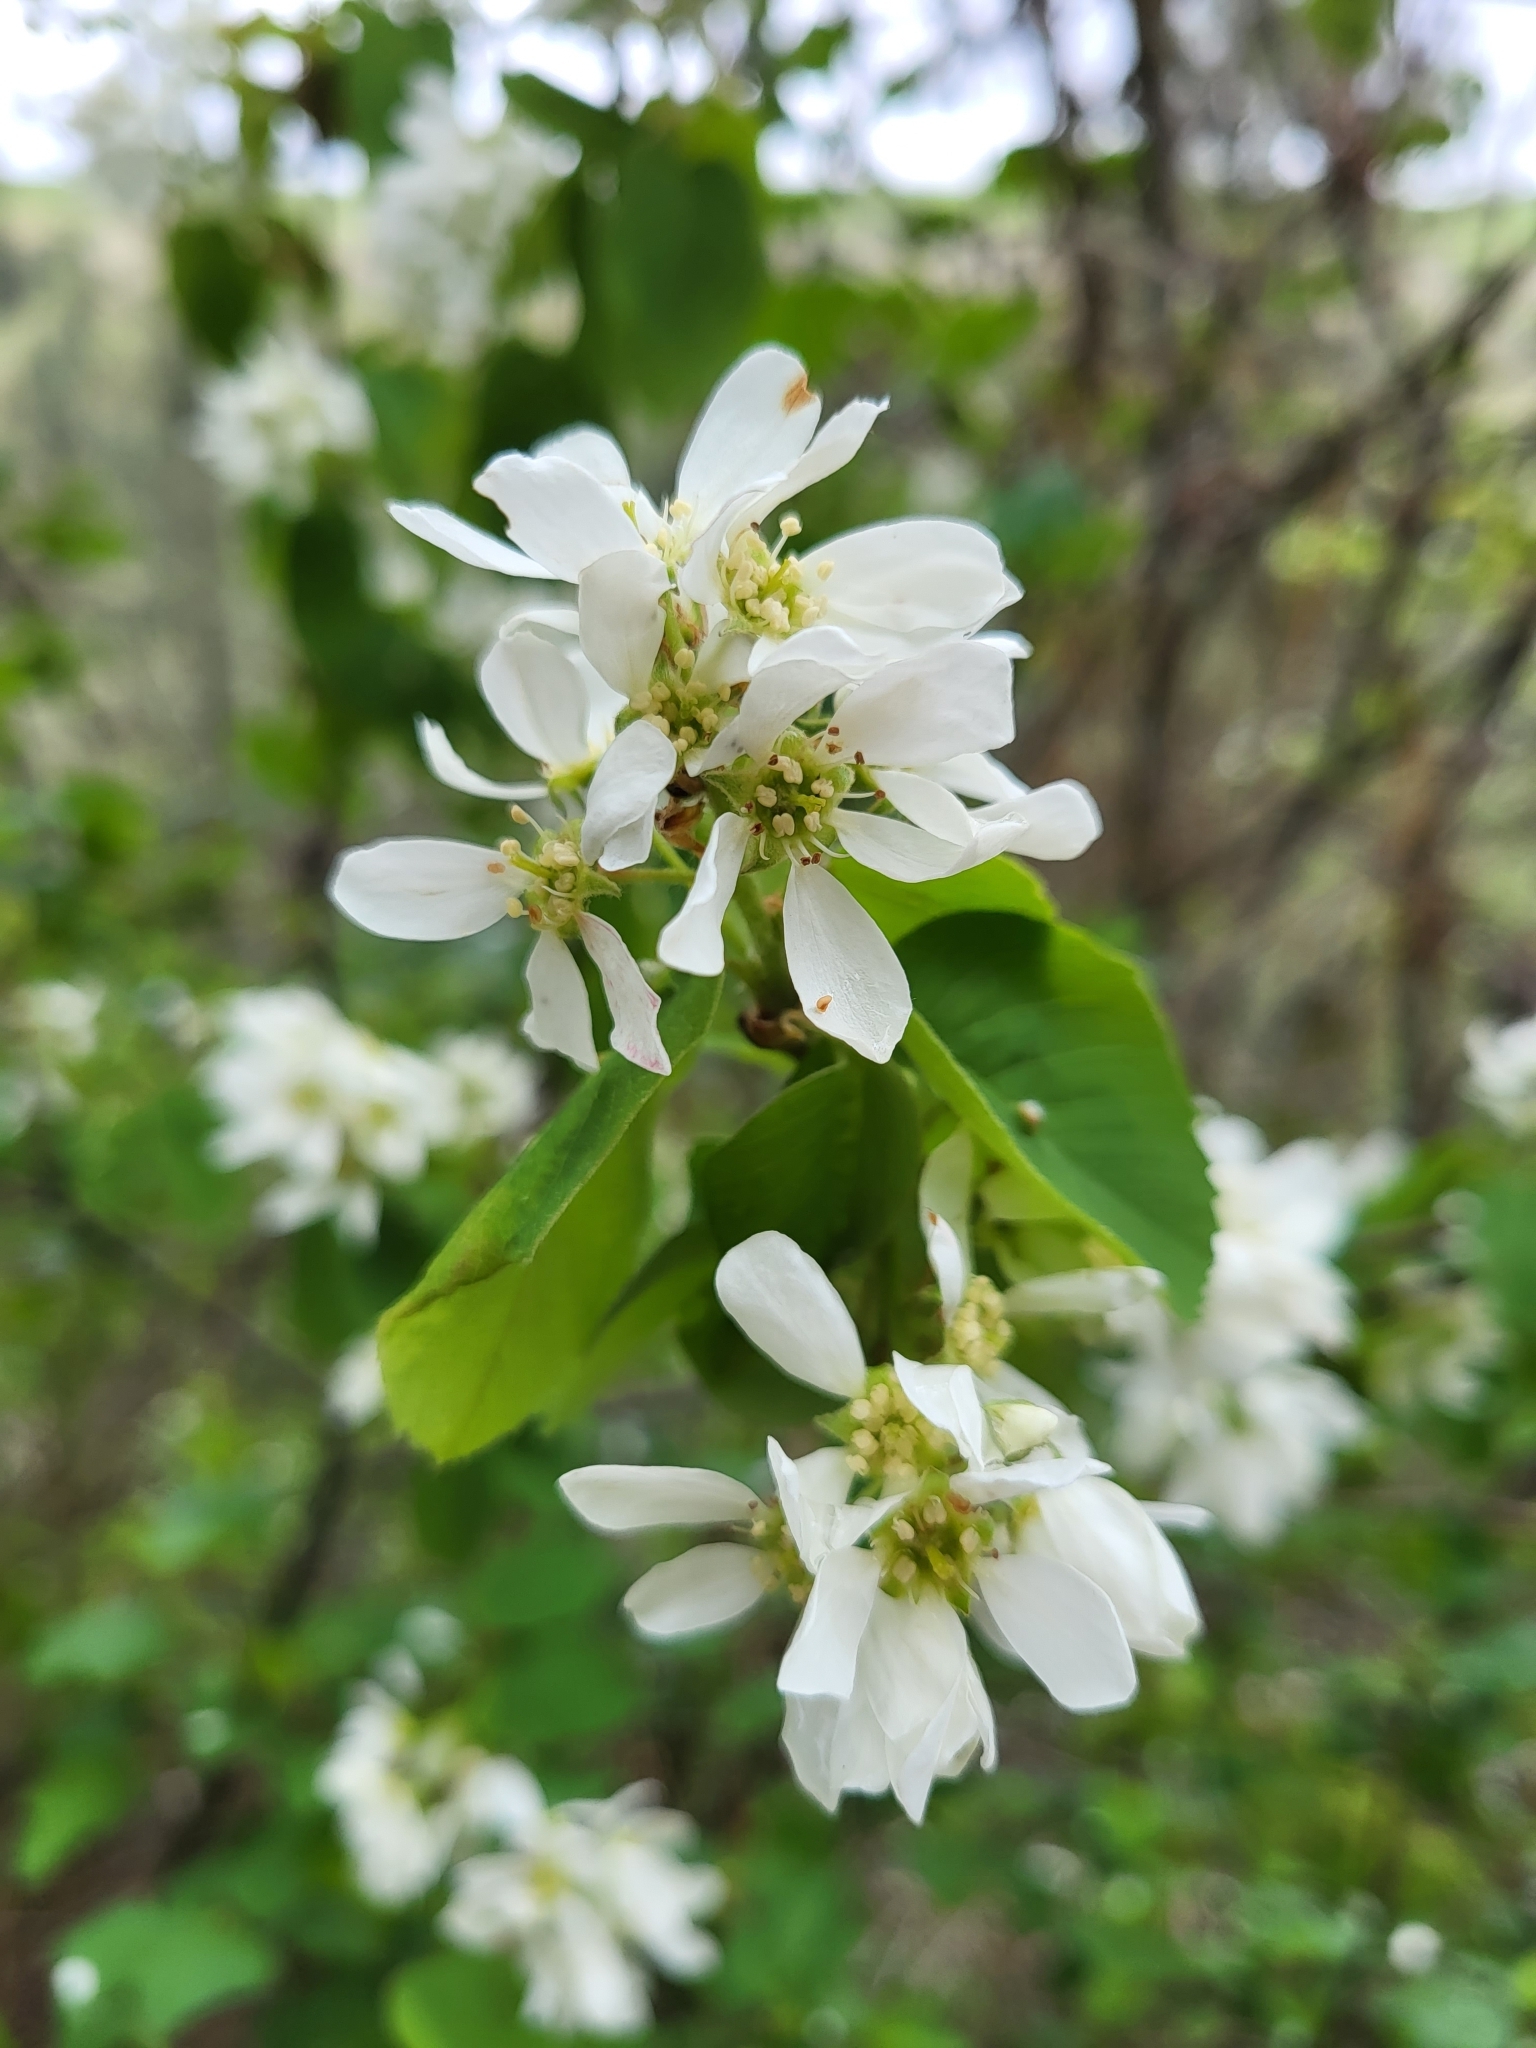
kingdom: Plantae
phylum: Tracheophyta
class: Magnoliopsida
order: Rosales
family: Rosaceae
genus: Amelanchier
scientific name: Amelanchier alnifolia
